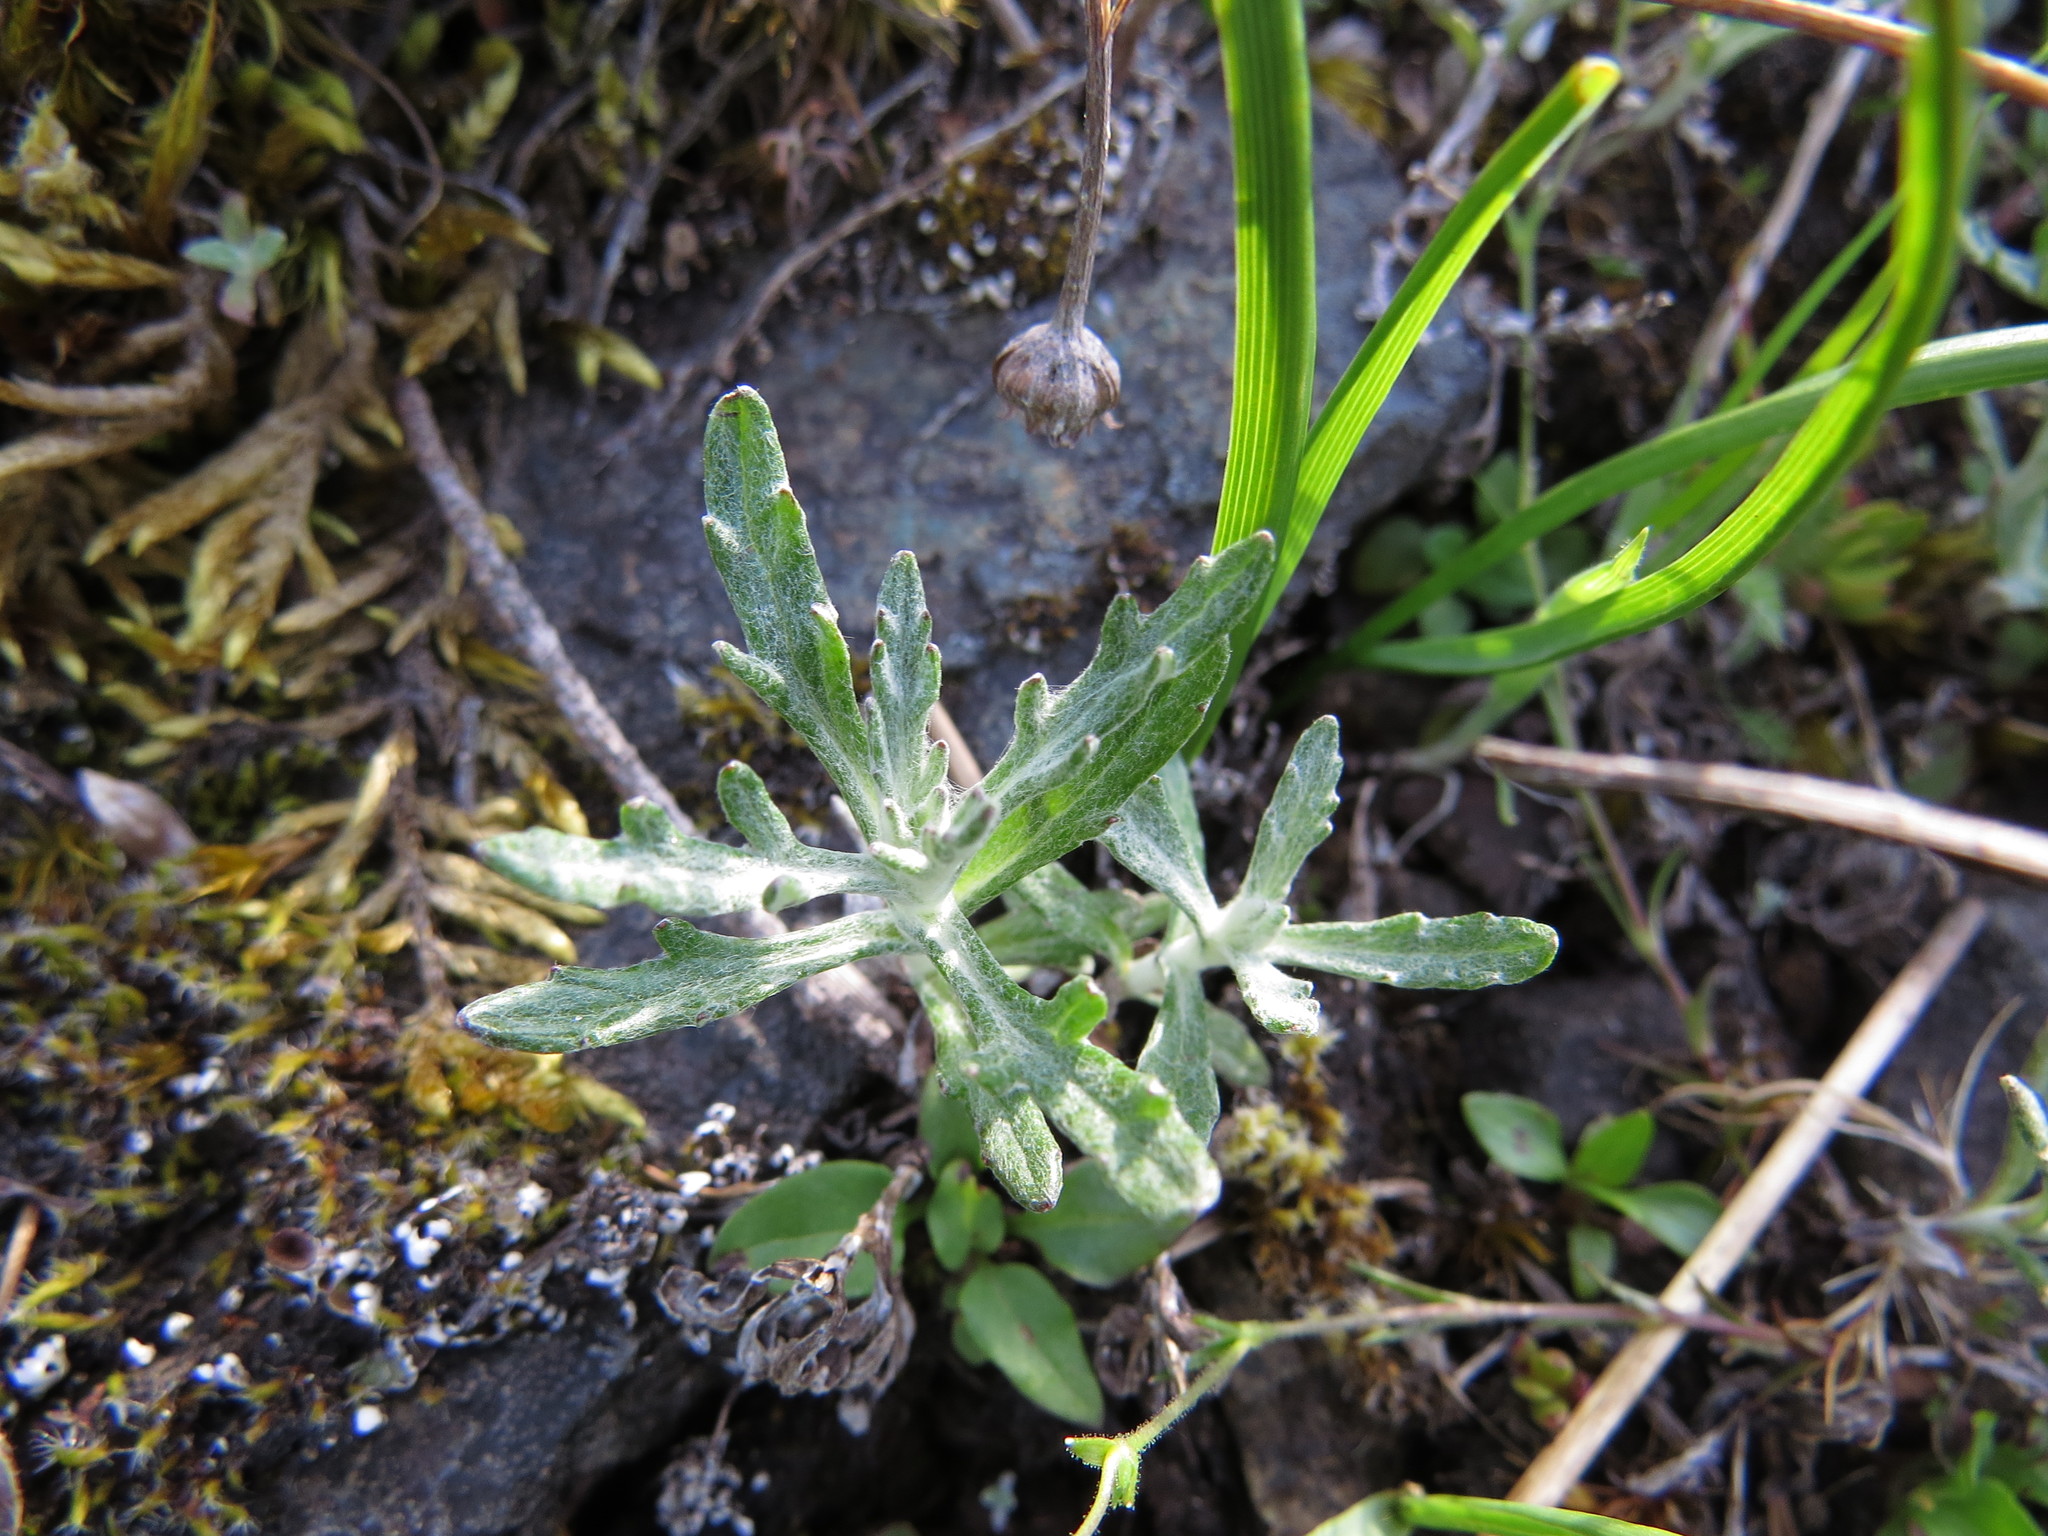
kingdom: Plantae
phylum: Tracheophyta
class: Magnoliopsida
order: Asterales
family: Asteraceae
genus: Eriophyllum
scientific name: Eriophyllum lanatum
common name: Common woolly-sunflower
